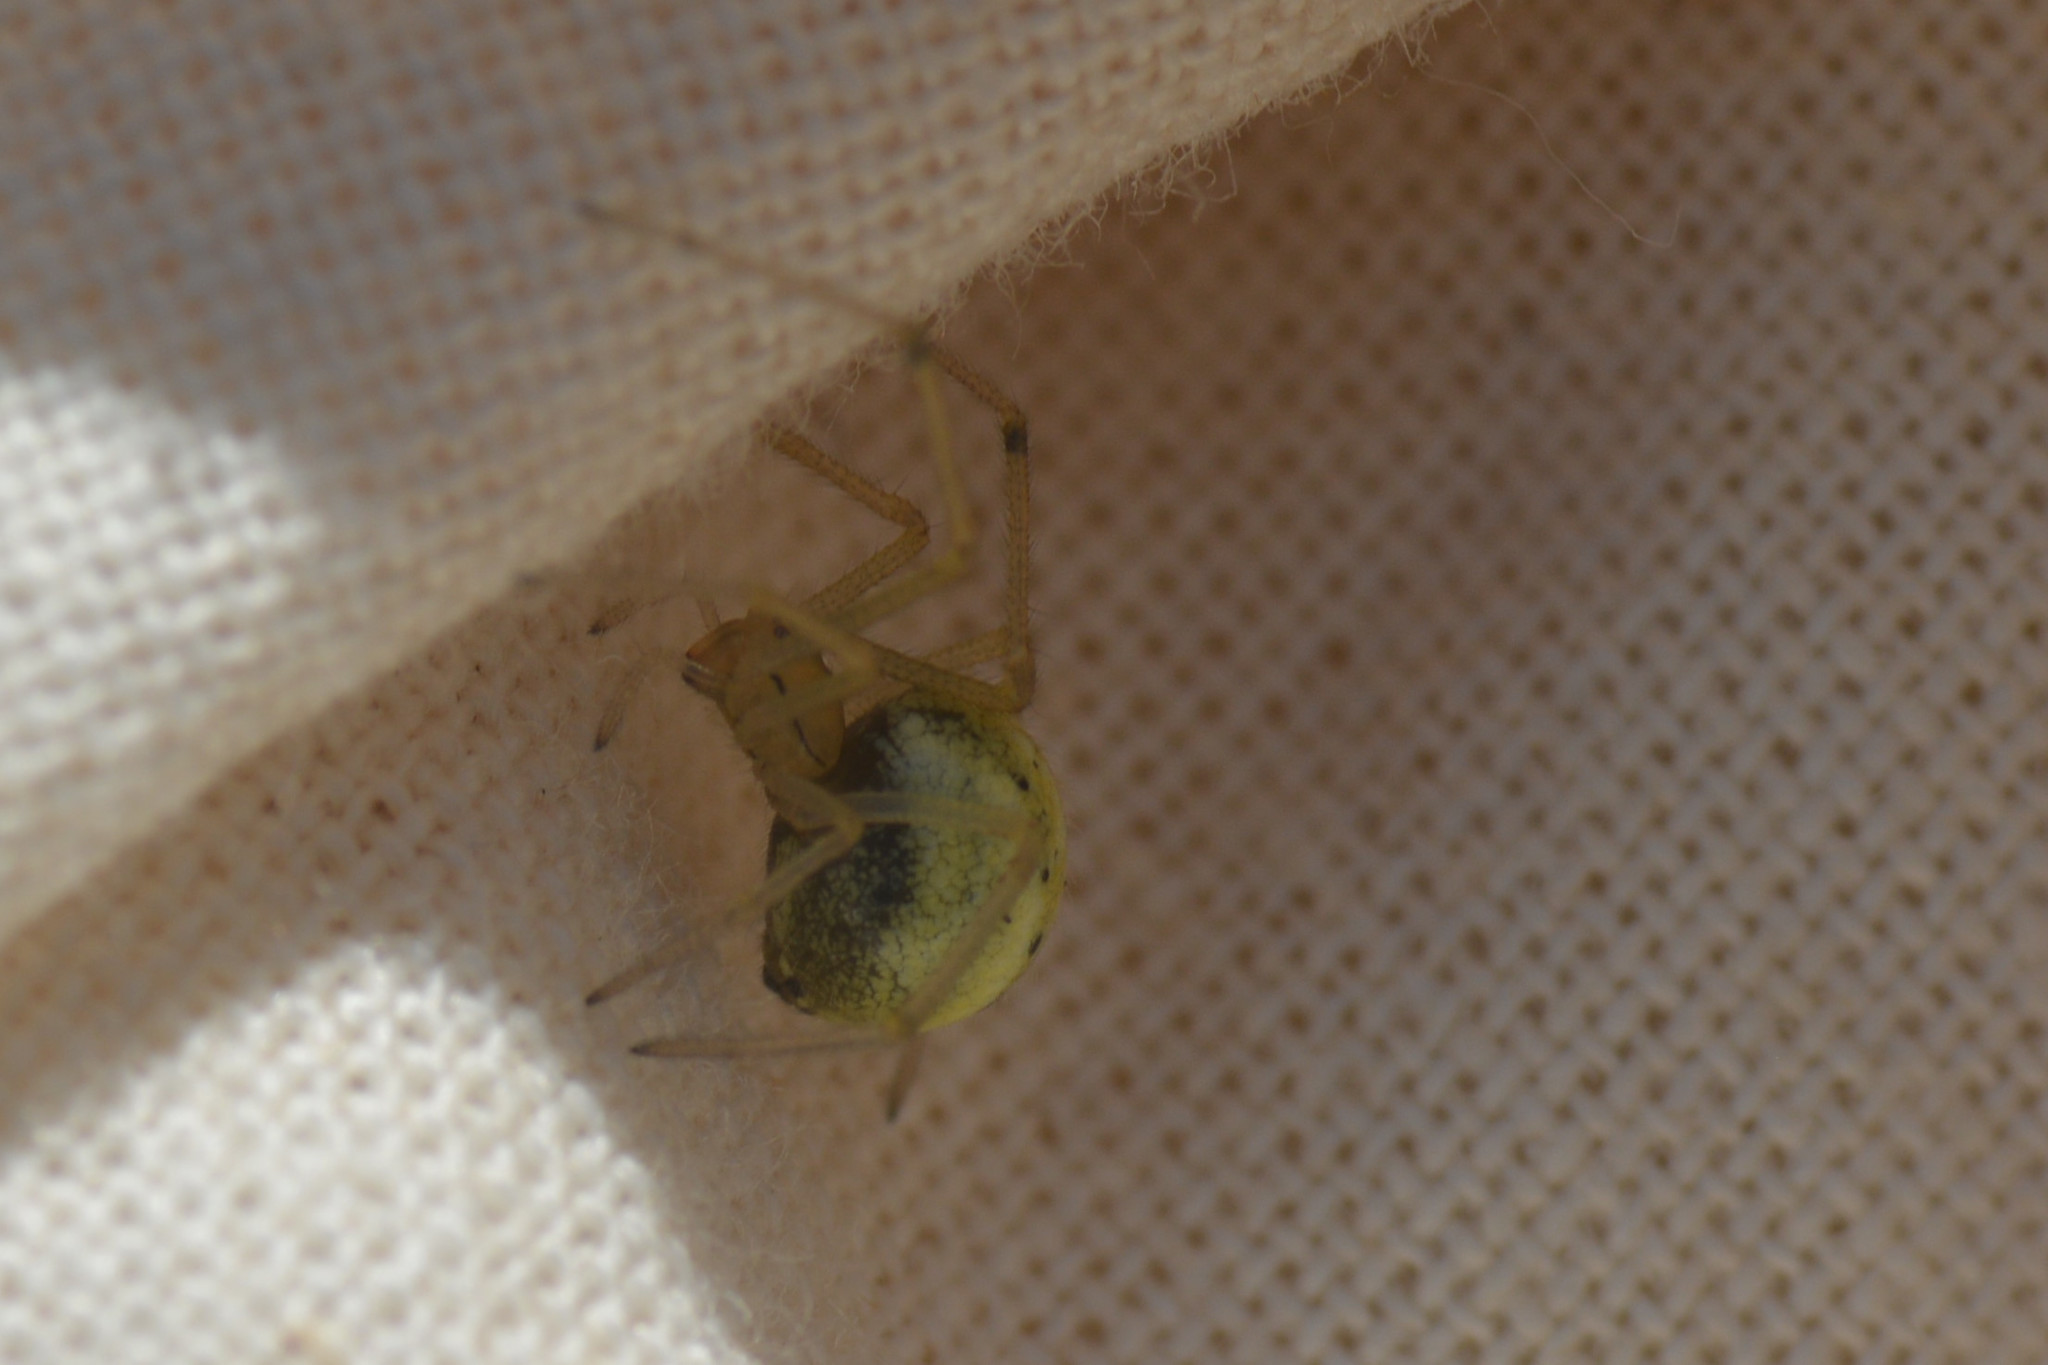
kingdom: Animalia
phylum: Arthropoda
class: Arachnida
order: Araneae
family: Theridiidae
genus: Enoplognatha
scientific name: Enoplognatha
